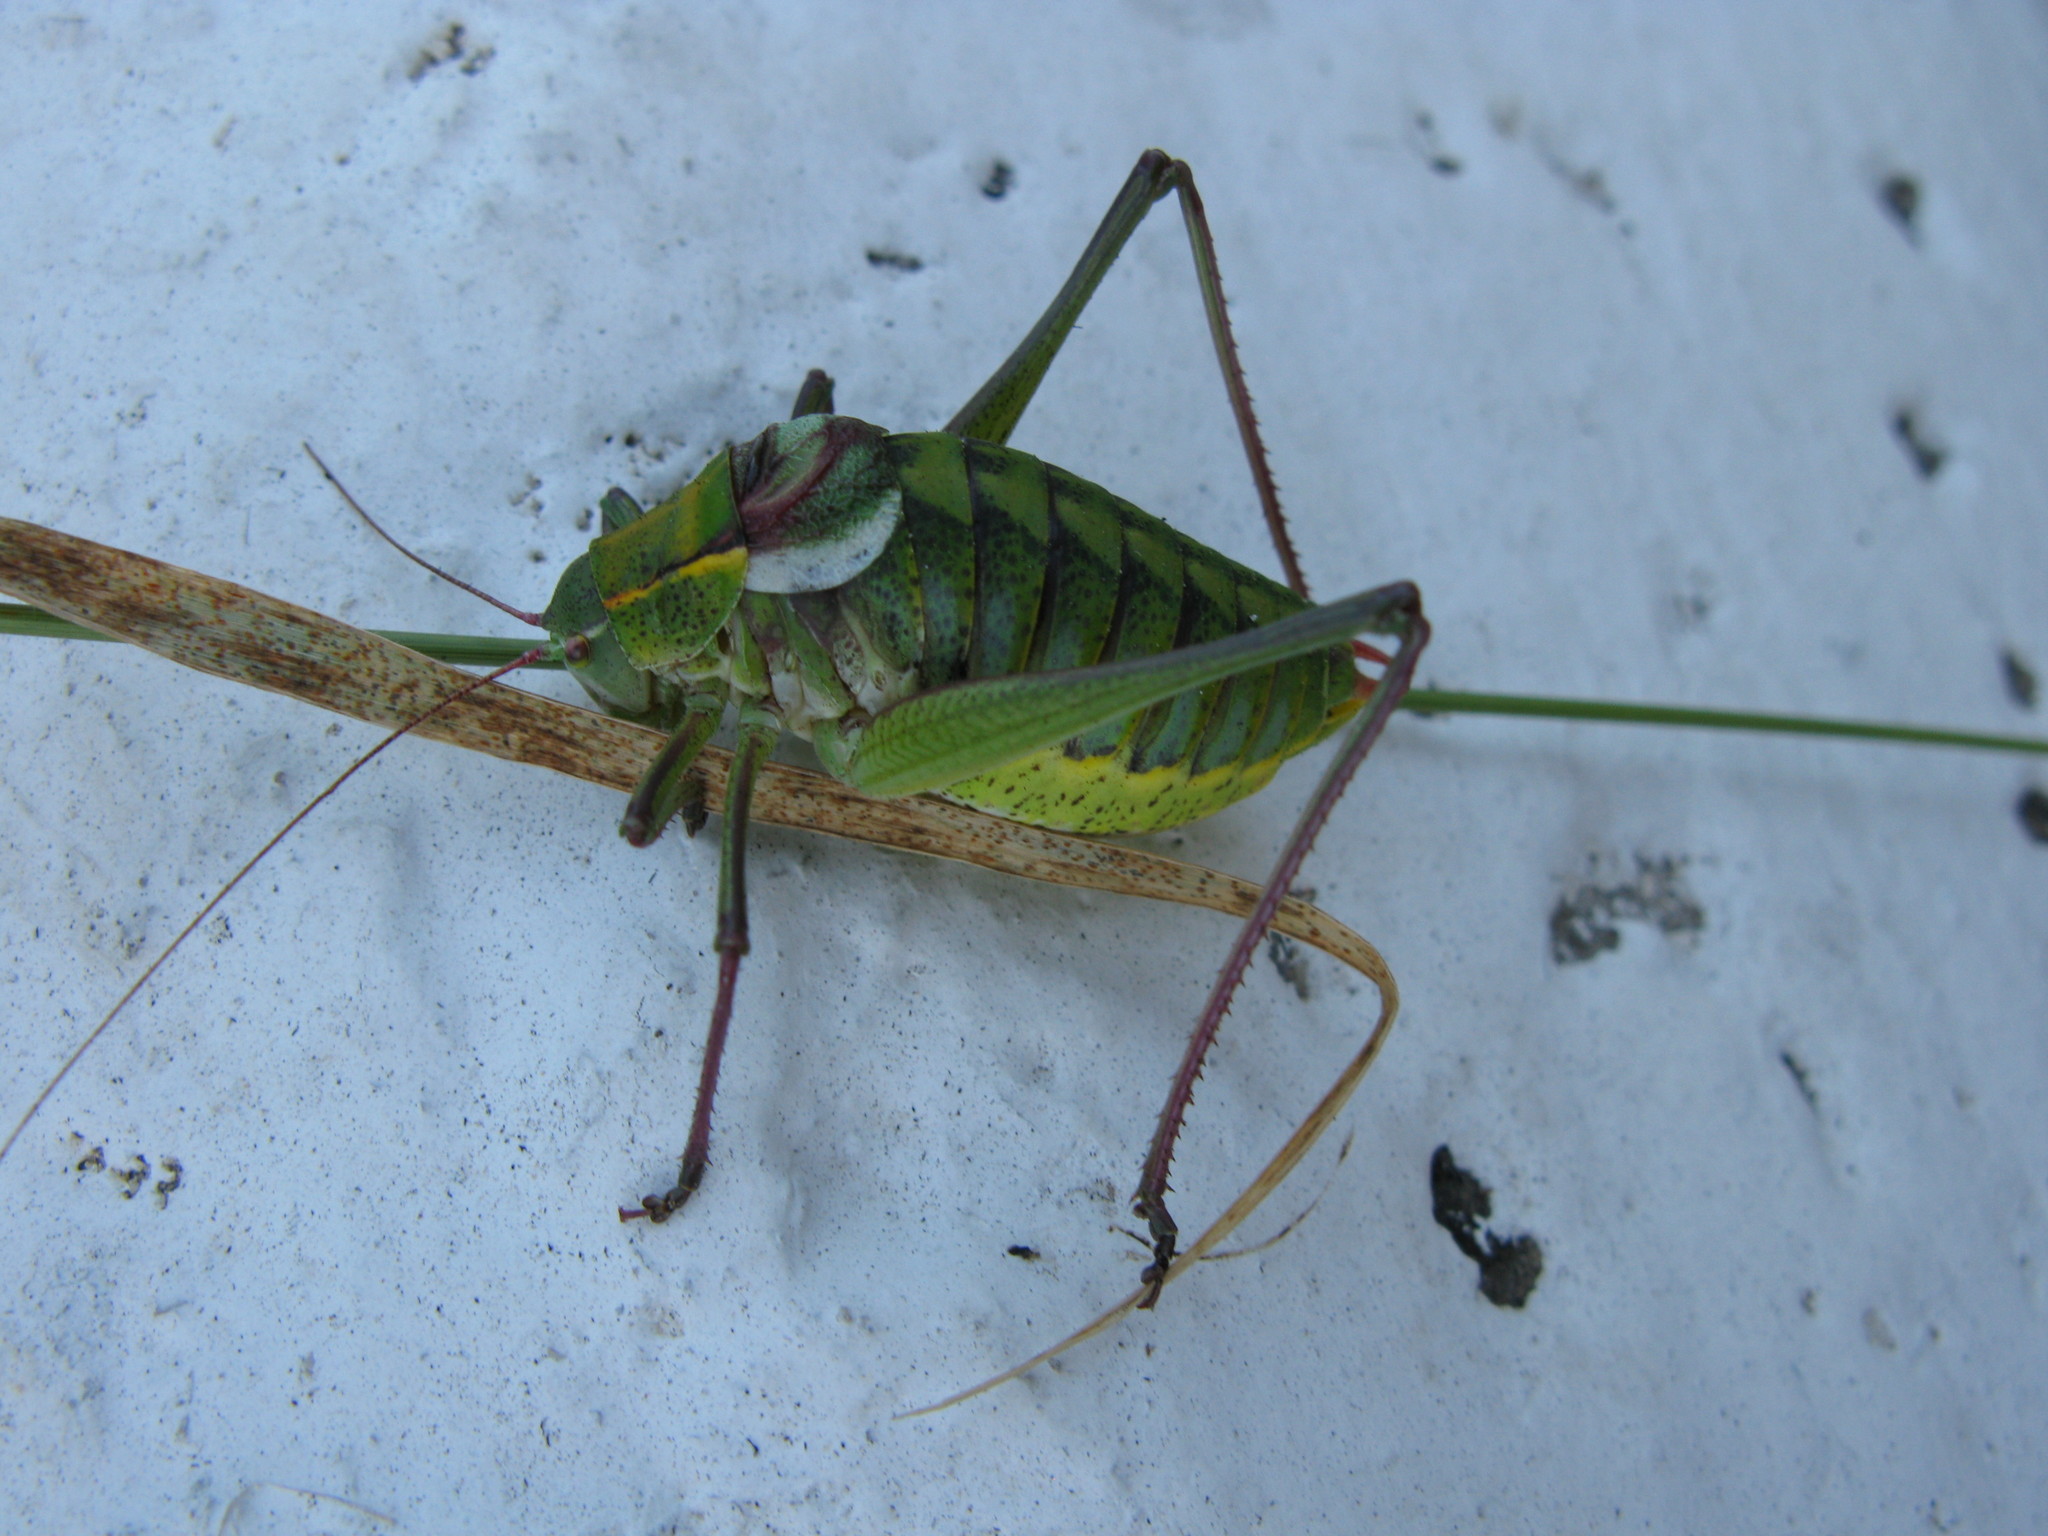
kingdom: Animalia
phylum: Arthropoda
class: Insecta
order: Orthoptera
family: Tettigoniidae
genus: Isophya
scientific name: Isophya taurica
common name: Krymean plump bush-cricket
